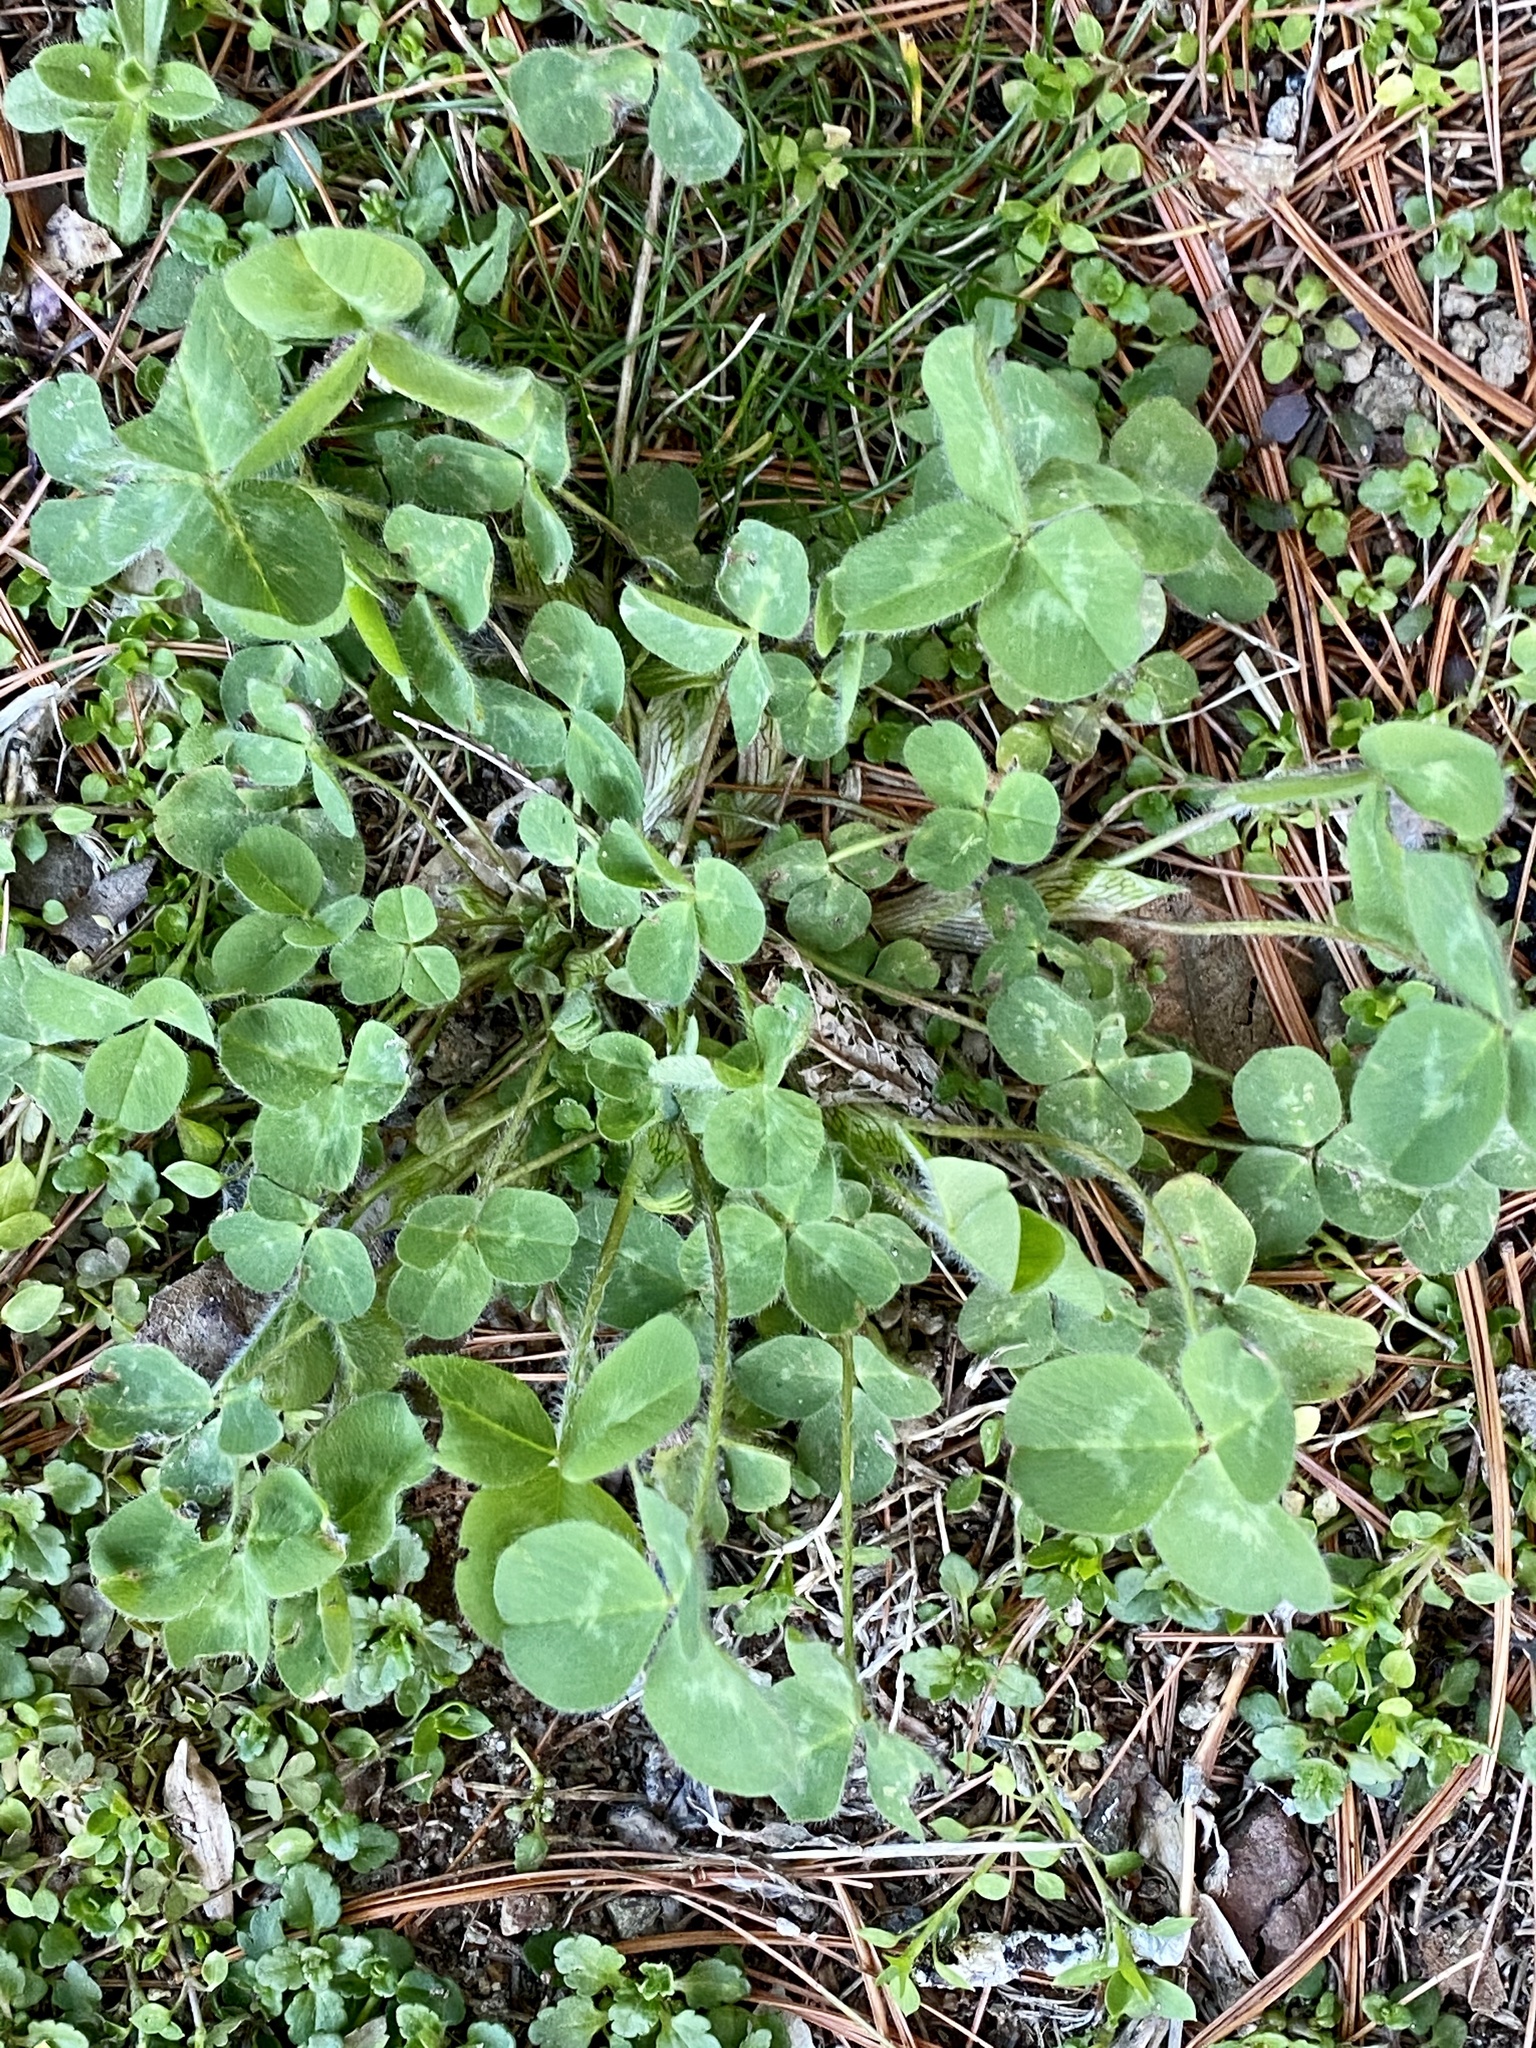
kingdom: Plantae
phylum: Tracheophyta
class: Magnoliopsida
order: Fabales
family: Fabaceae
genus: Trifolium
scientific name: Trifolium pratense
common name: Red clover
